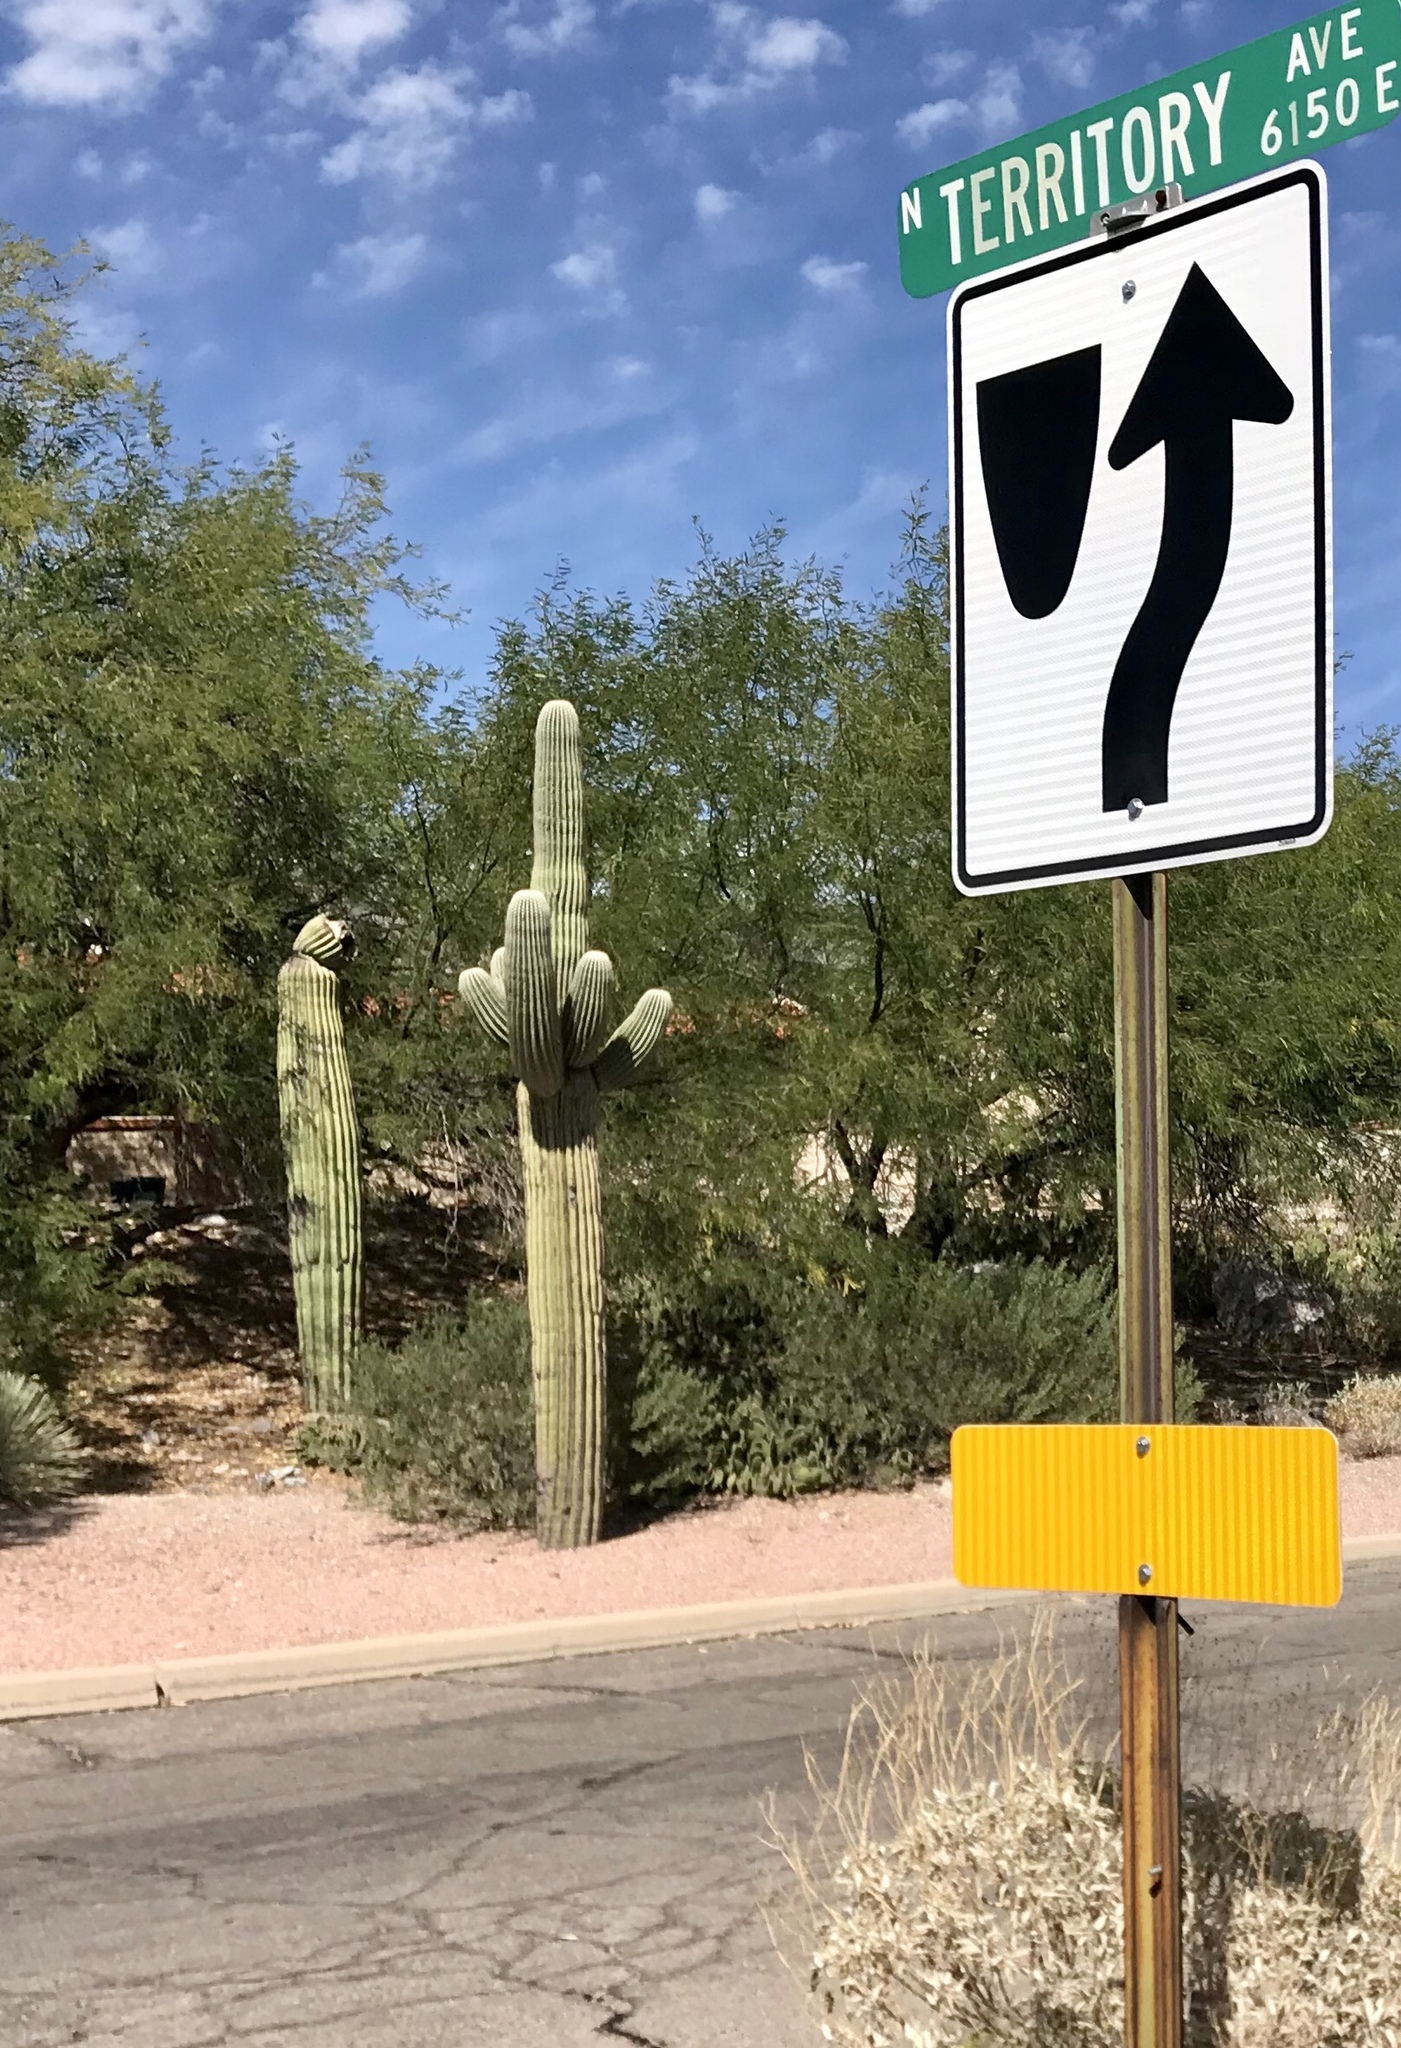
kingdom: Plantae
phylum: Tracheophyta
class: Magnoliopsida
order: Caryophyllales
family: Cactaceae
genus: Carnegiea
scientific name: Carnegiea gigantea
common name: Saguaro
